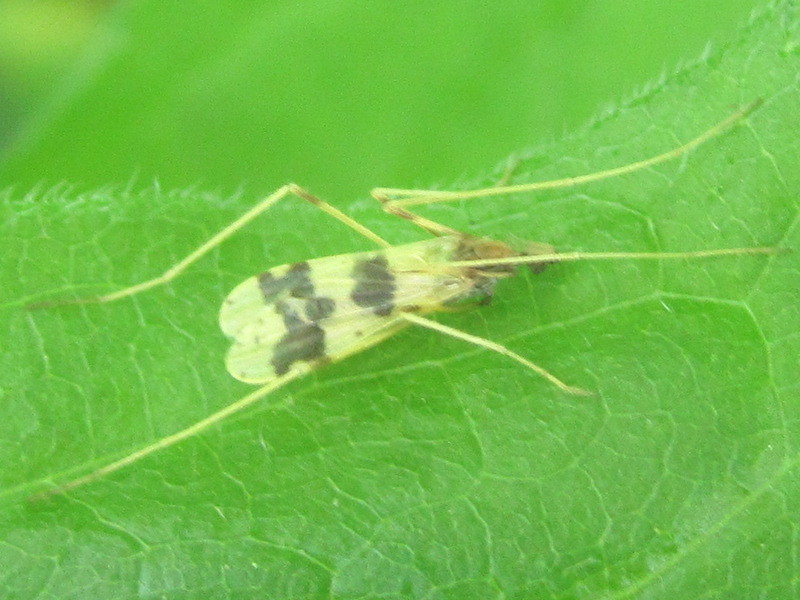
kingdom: Animalia
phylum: Arthropoda
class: Insecta
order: Diptera
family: Limoniidae
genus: Ilisia
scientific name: Ilisia venusta
